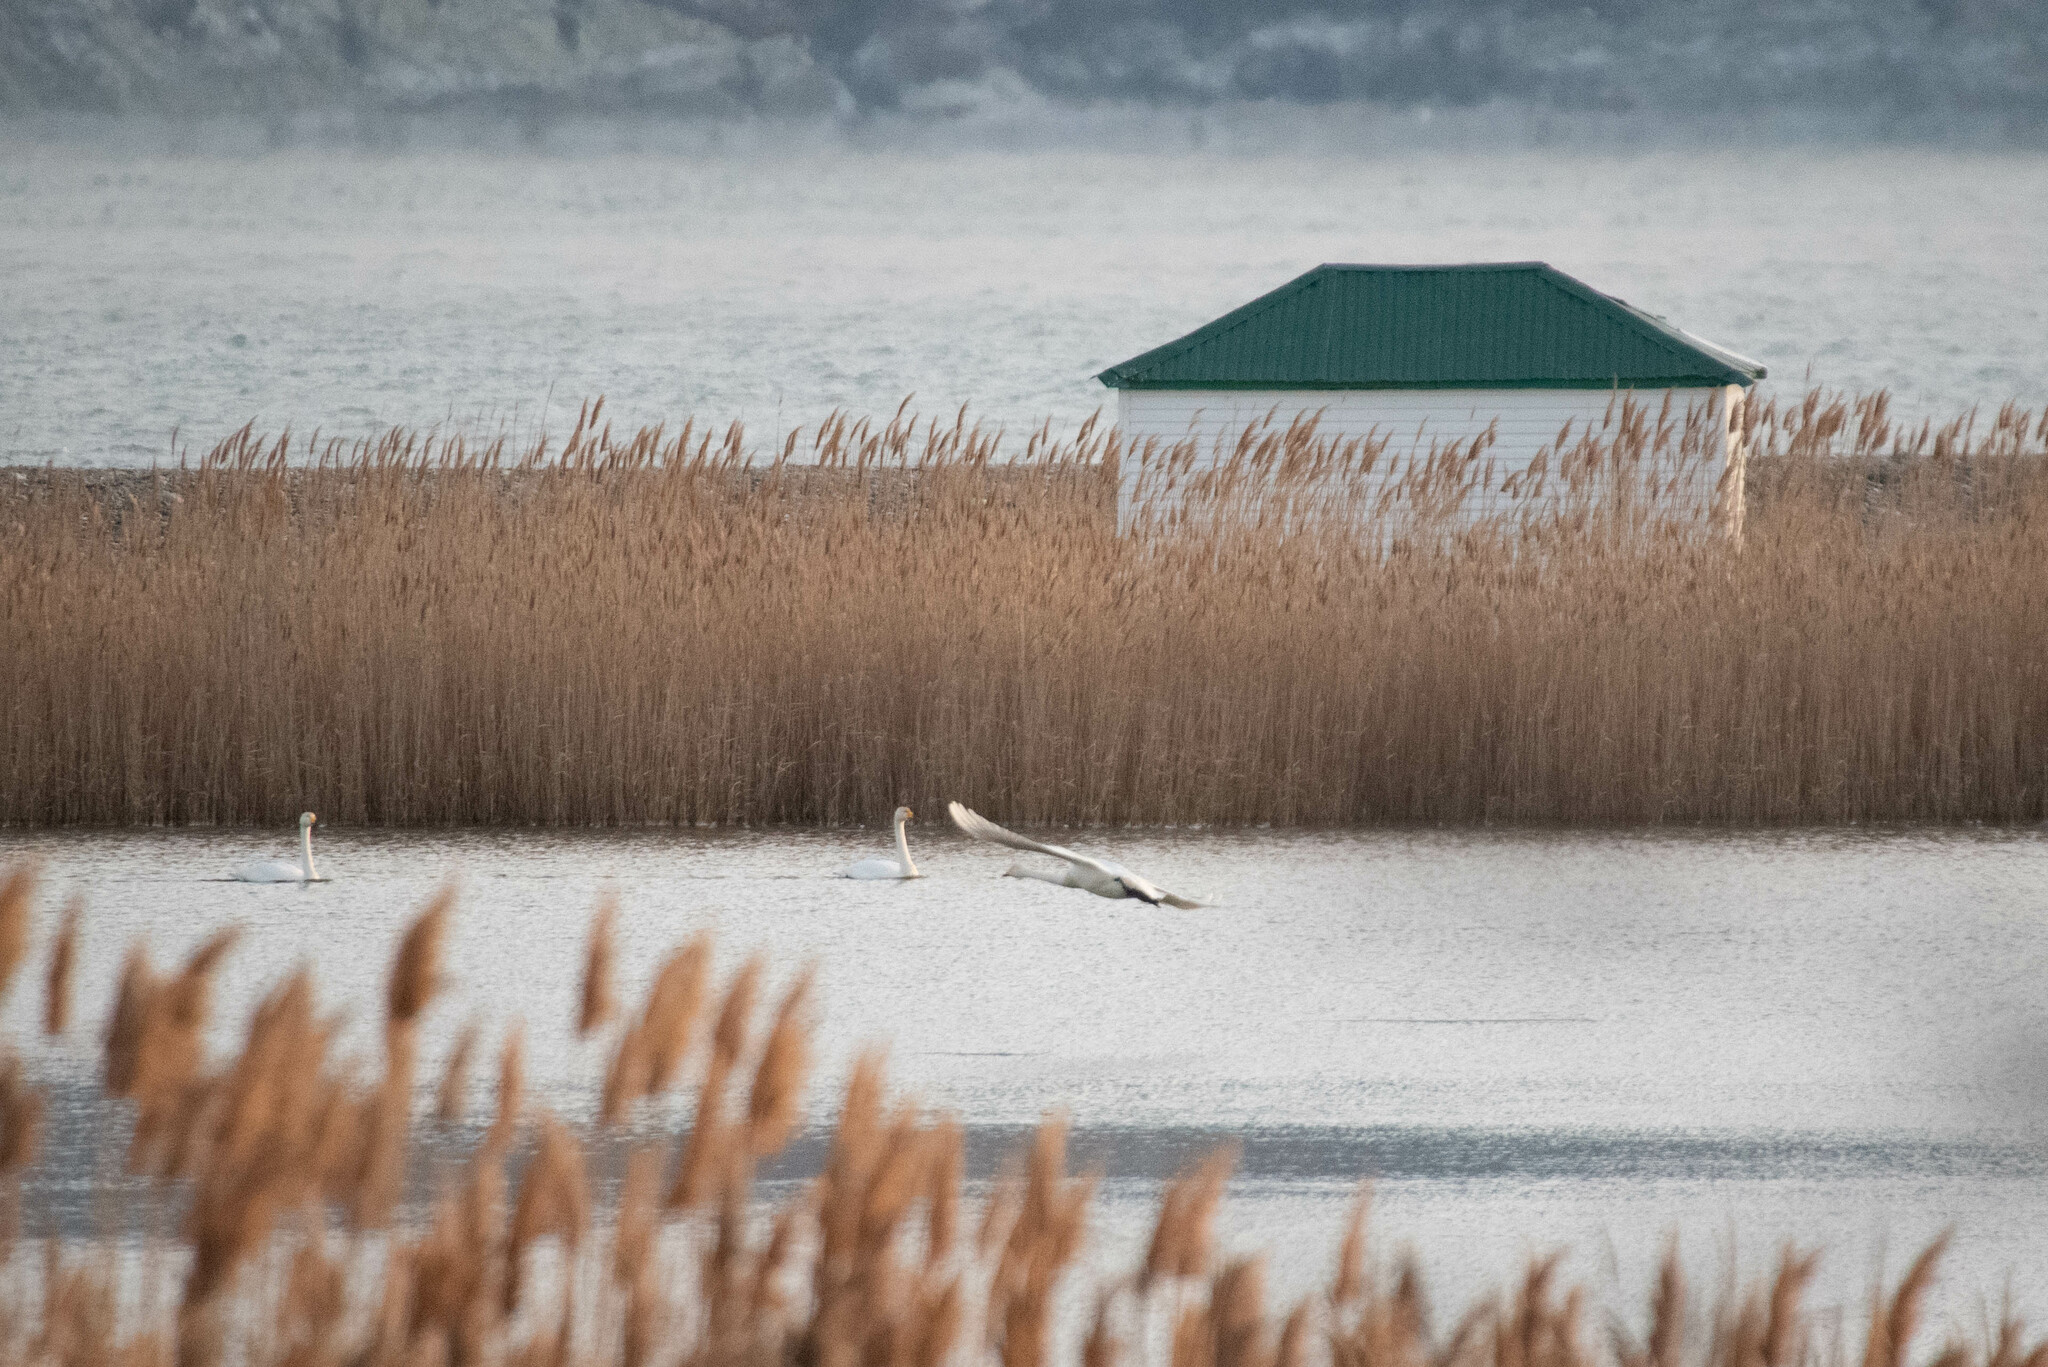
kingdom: Animalia
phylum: Chordata
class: Aves
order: Anseriformes
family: Anatidae
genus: Cygnus
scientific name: Cygnus cygnus
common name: Whooper swan
